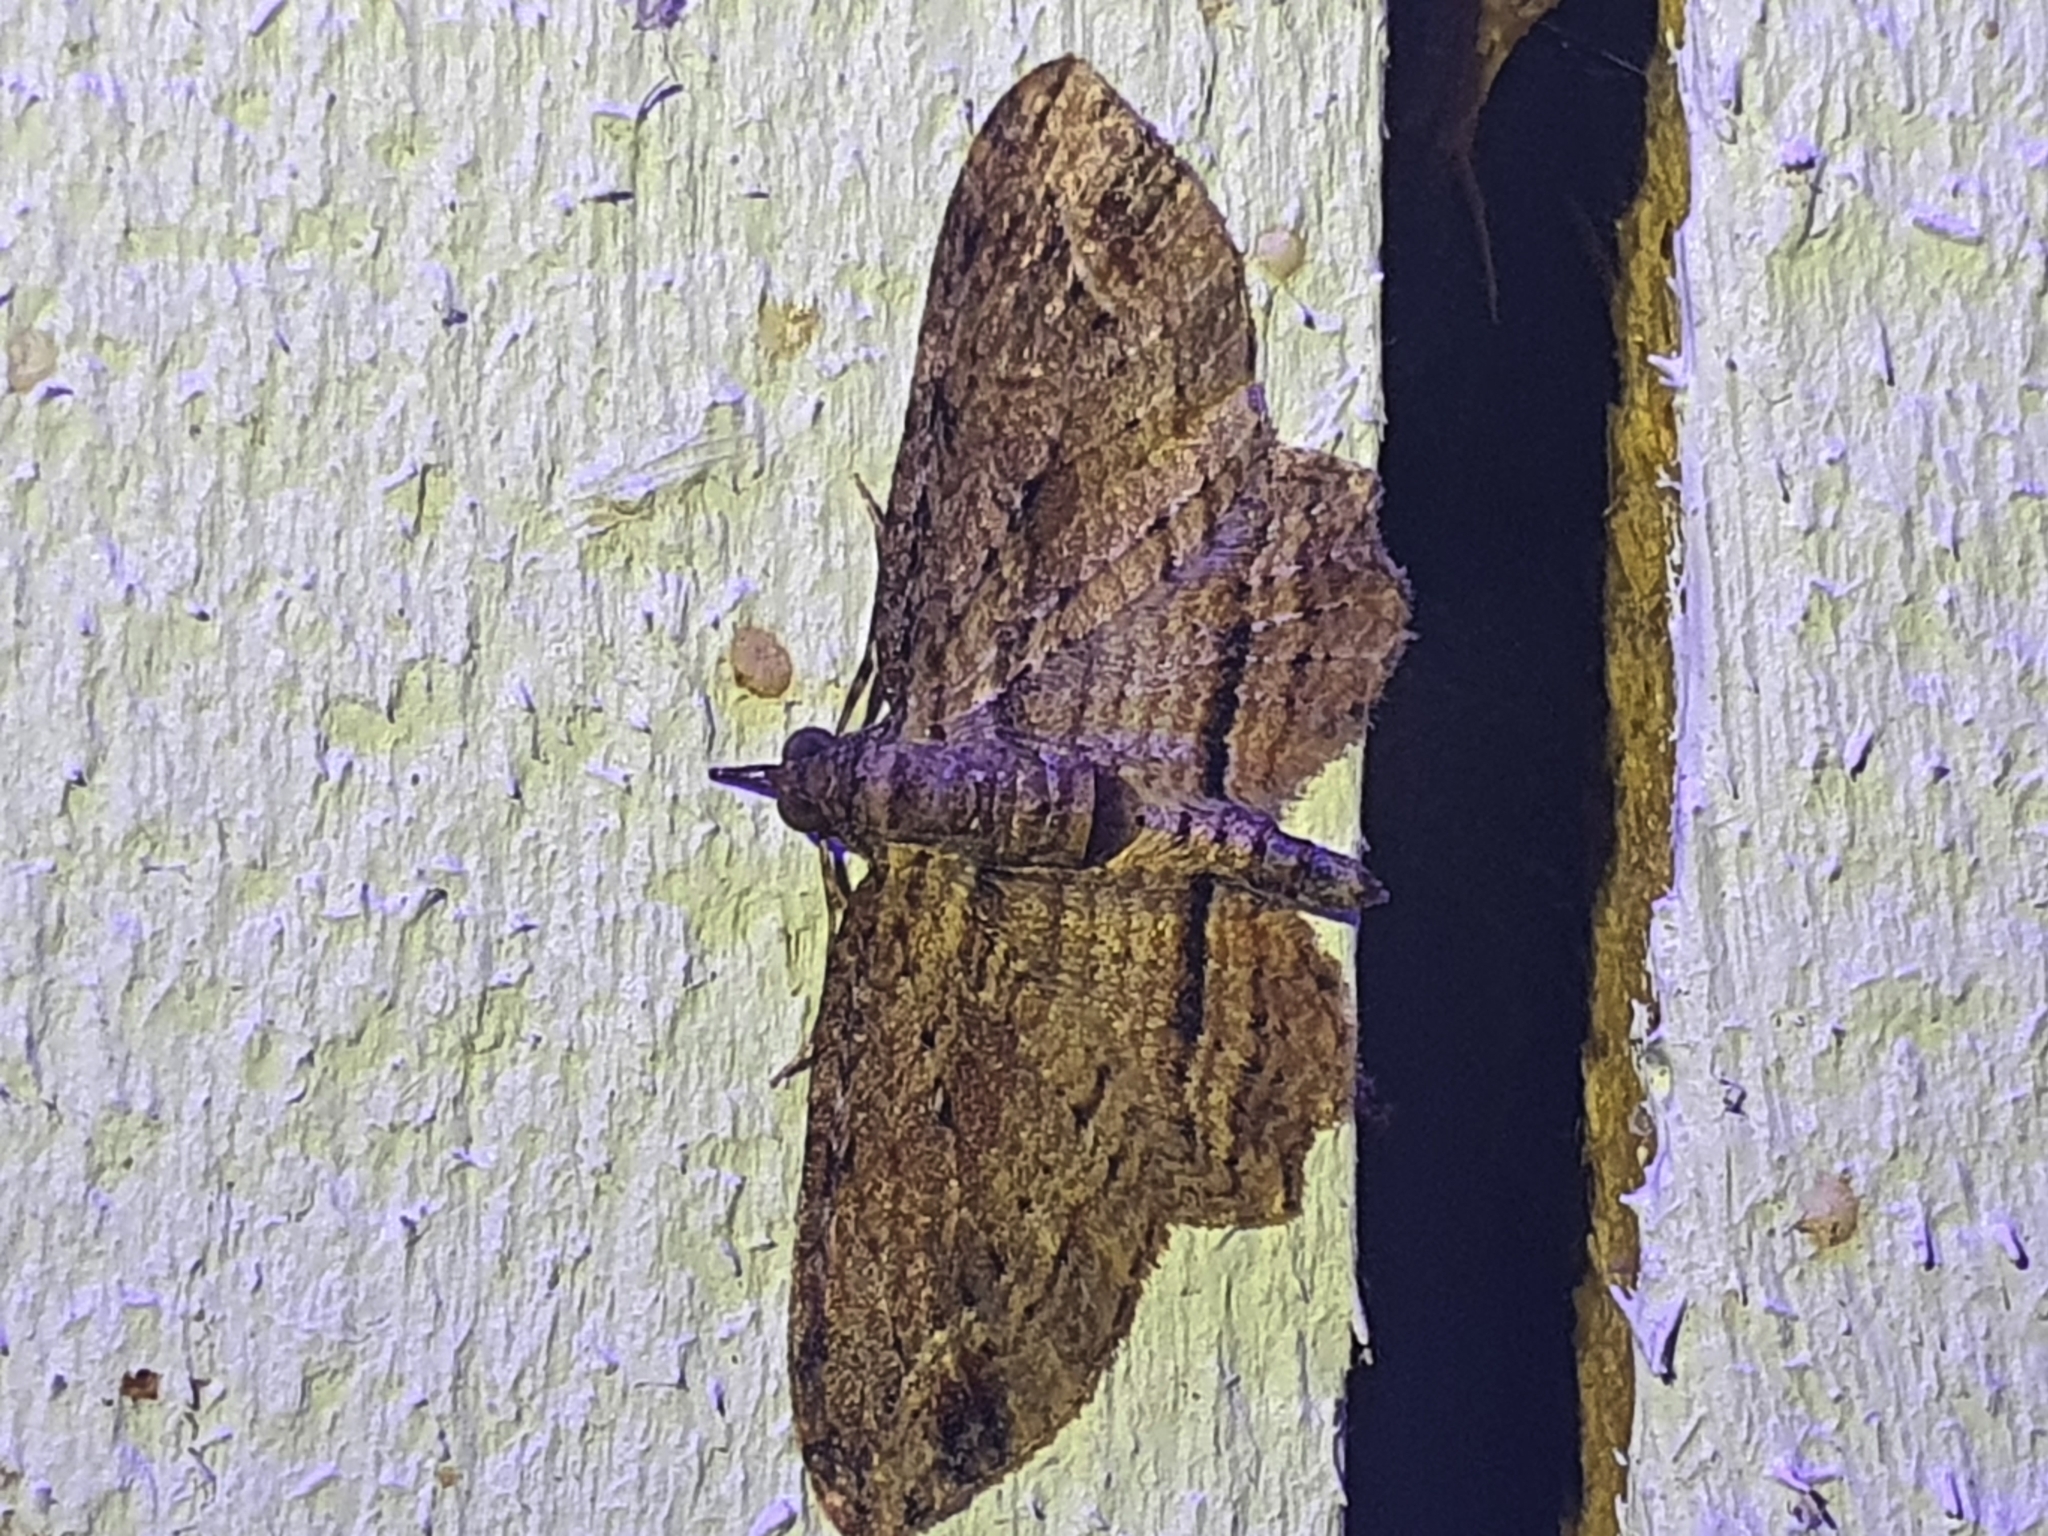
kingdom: Animalia
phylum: Arthropoda
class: Insecta
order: Lepidoptera
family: Geometridae
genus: Chloroclystis
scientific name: Chloroclystis filata
